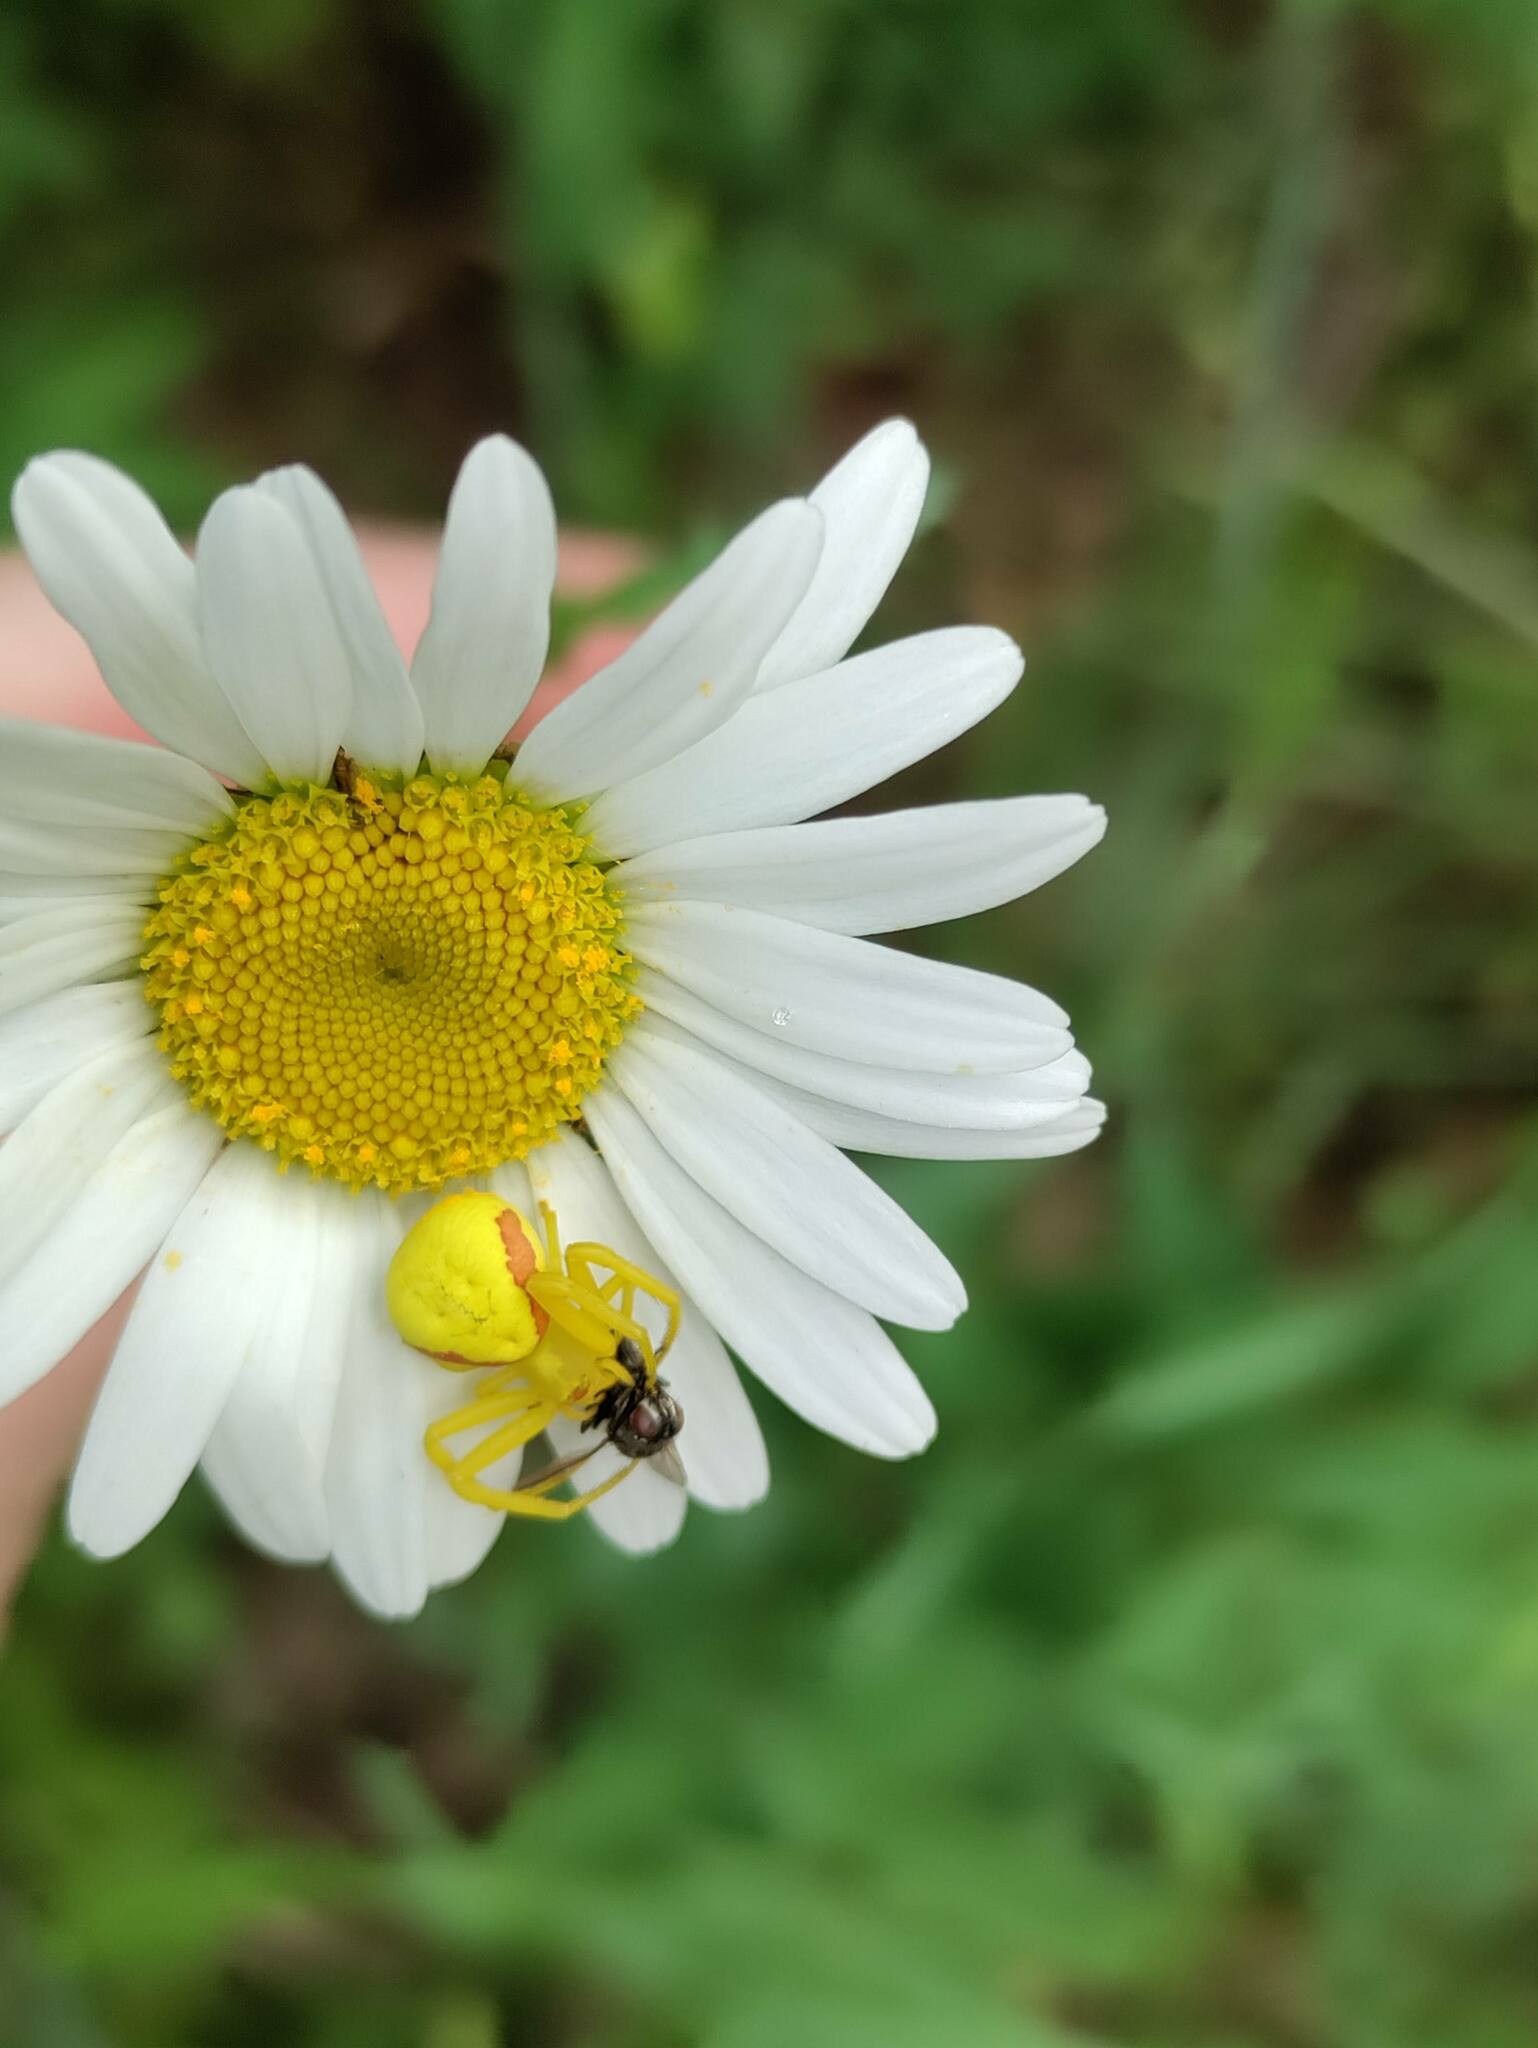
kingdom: Animalia
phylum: Arthropoda
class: Arachnida
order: Araneae
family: Thomisidae
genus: Misumena
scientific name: Misumena vatia
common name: Goldenrod crab spider
